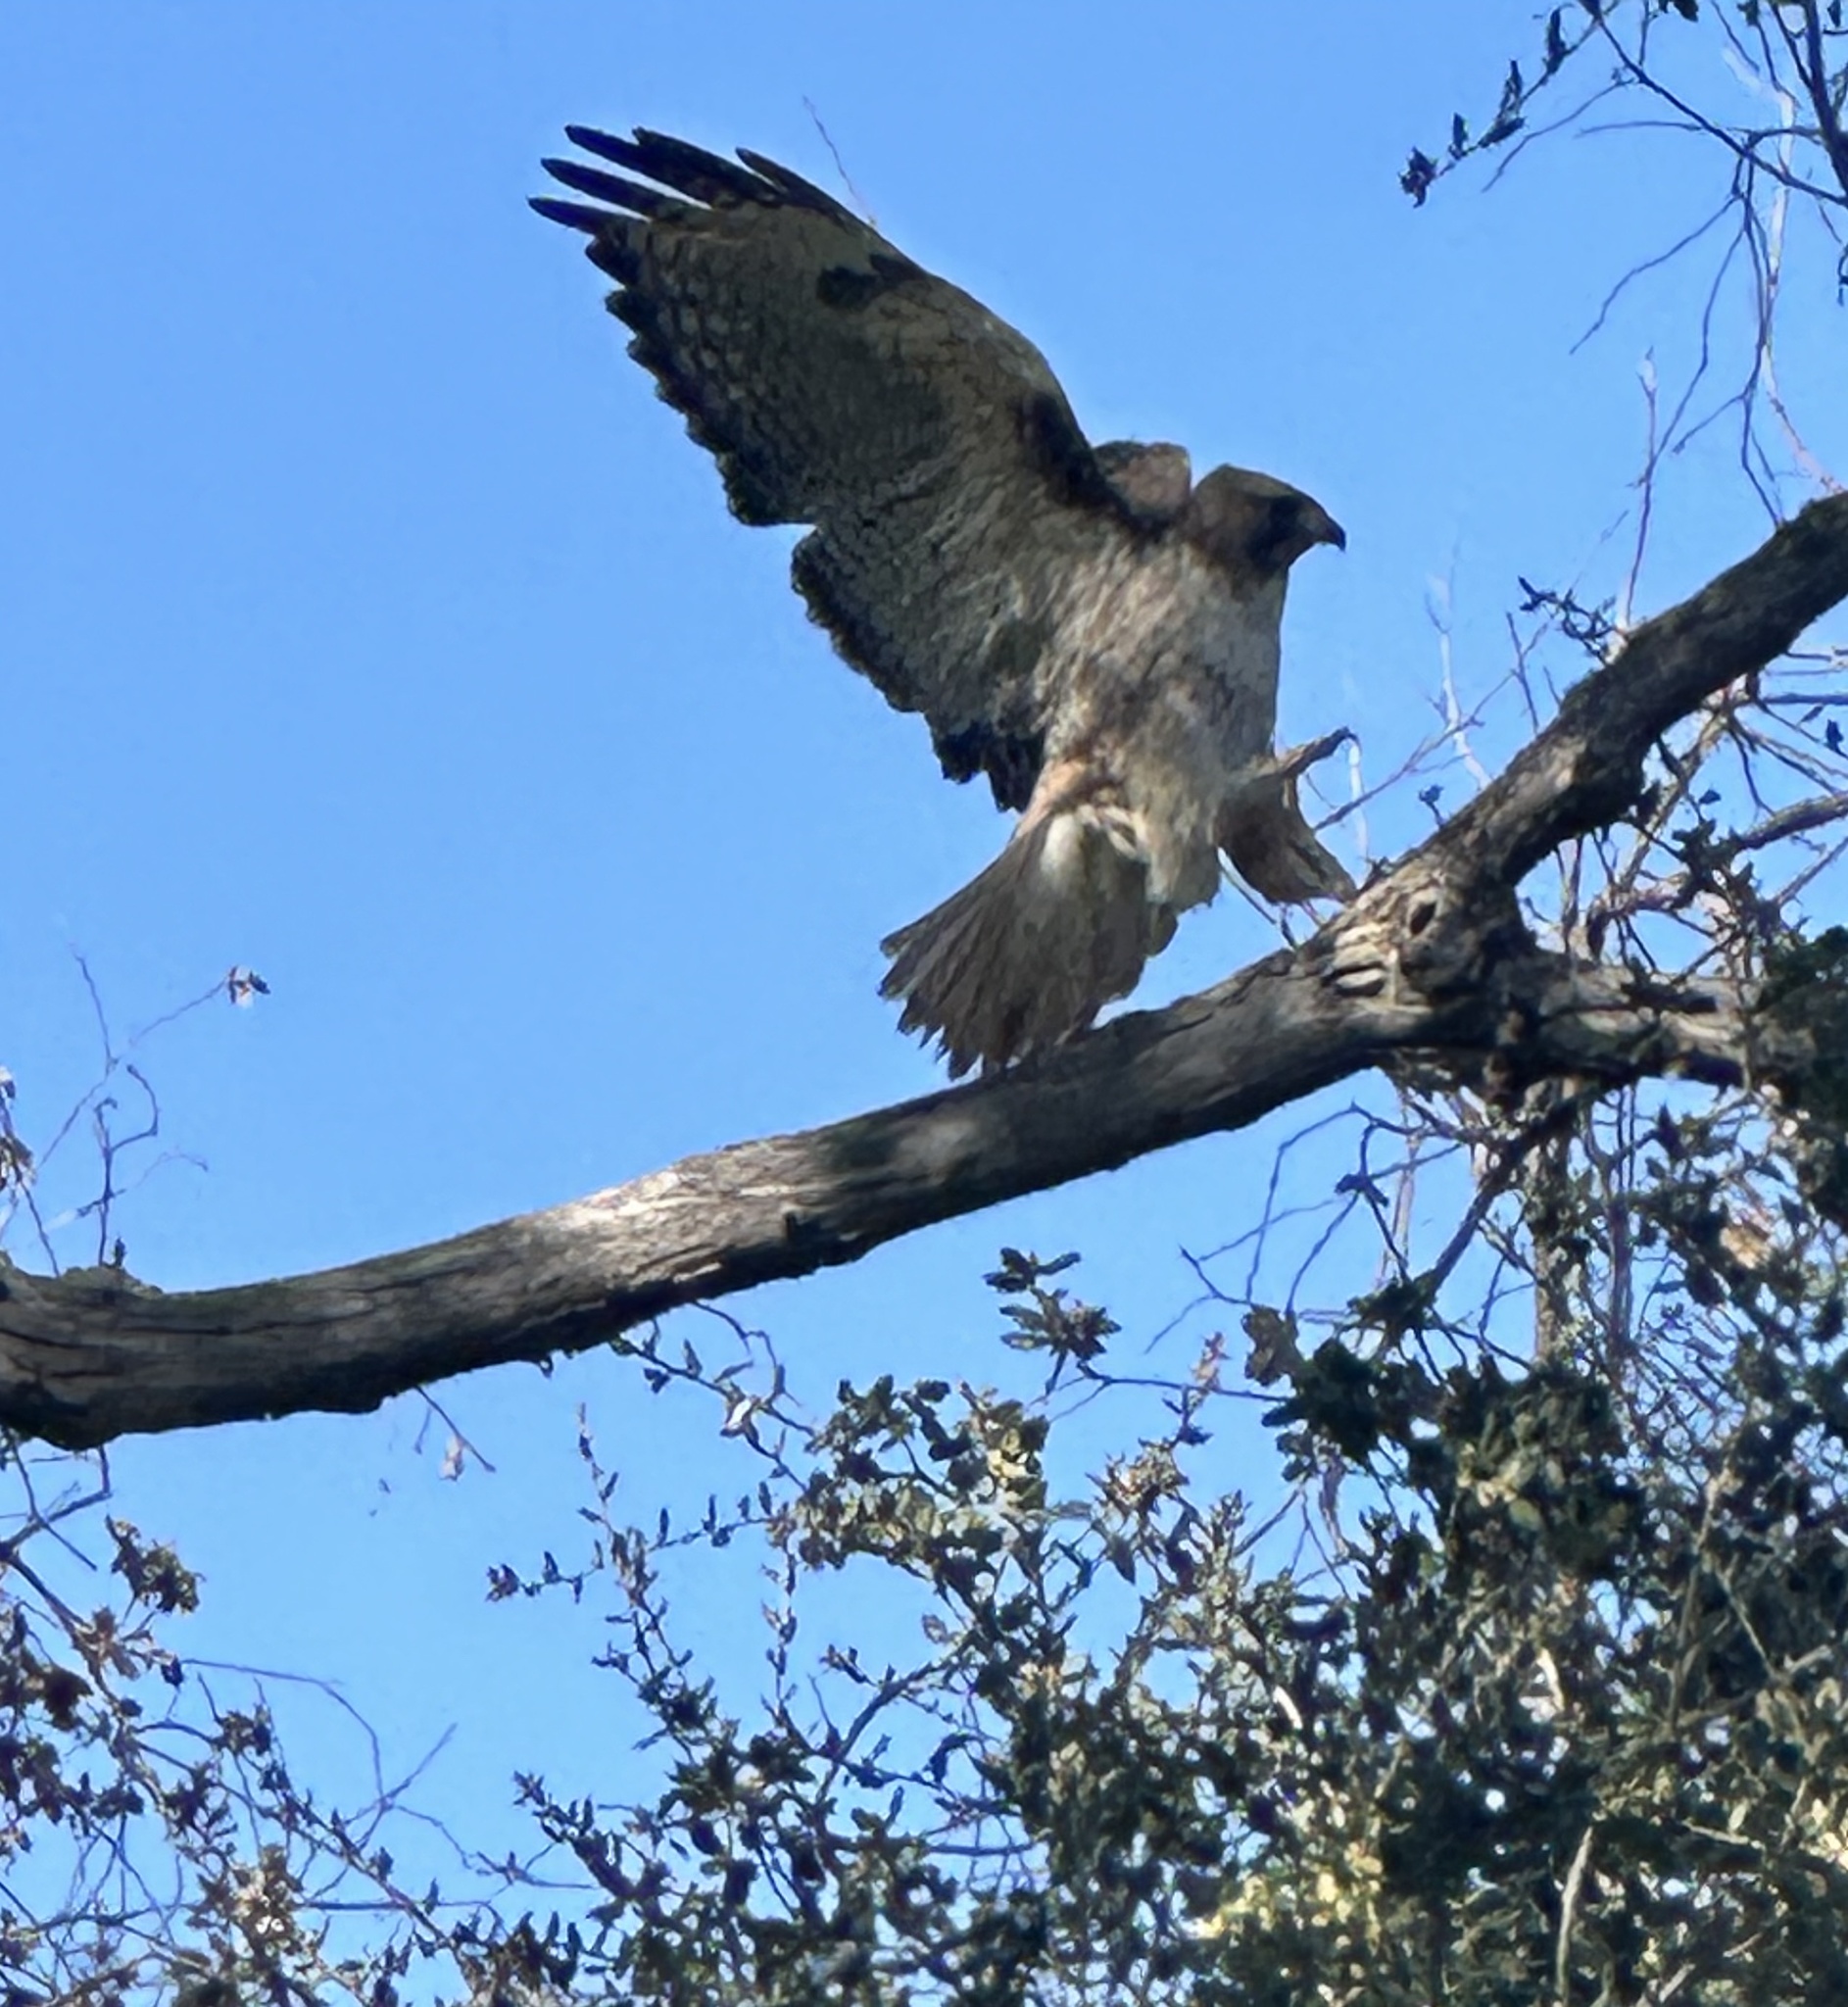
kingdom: Animalia
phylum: Chordata
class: Aves
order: Accipitriformes
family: Accipitridae
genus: Buteo
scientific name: Buteo jamaicensis
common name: Red-tailed hawk
